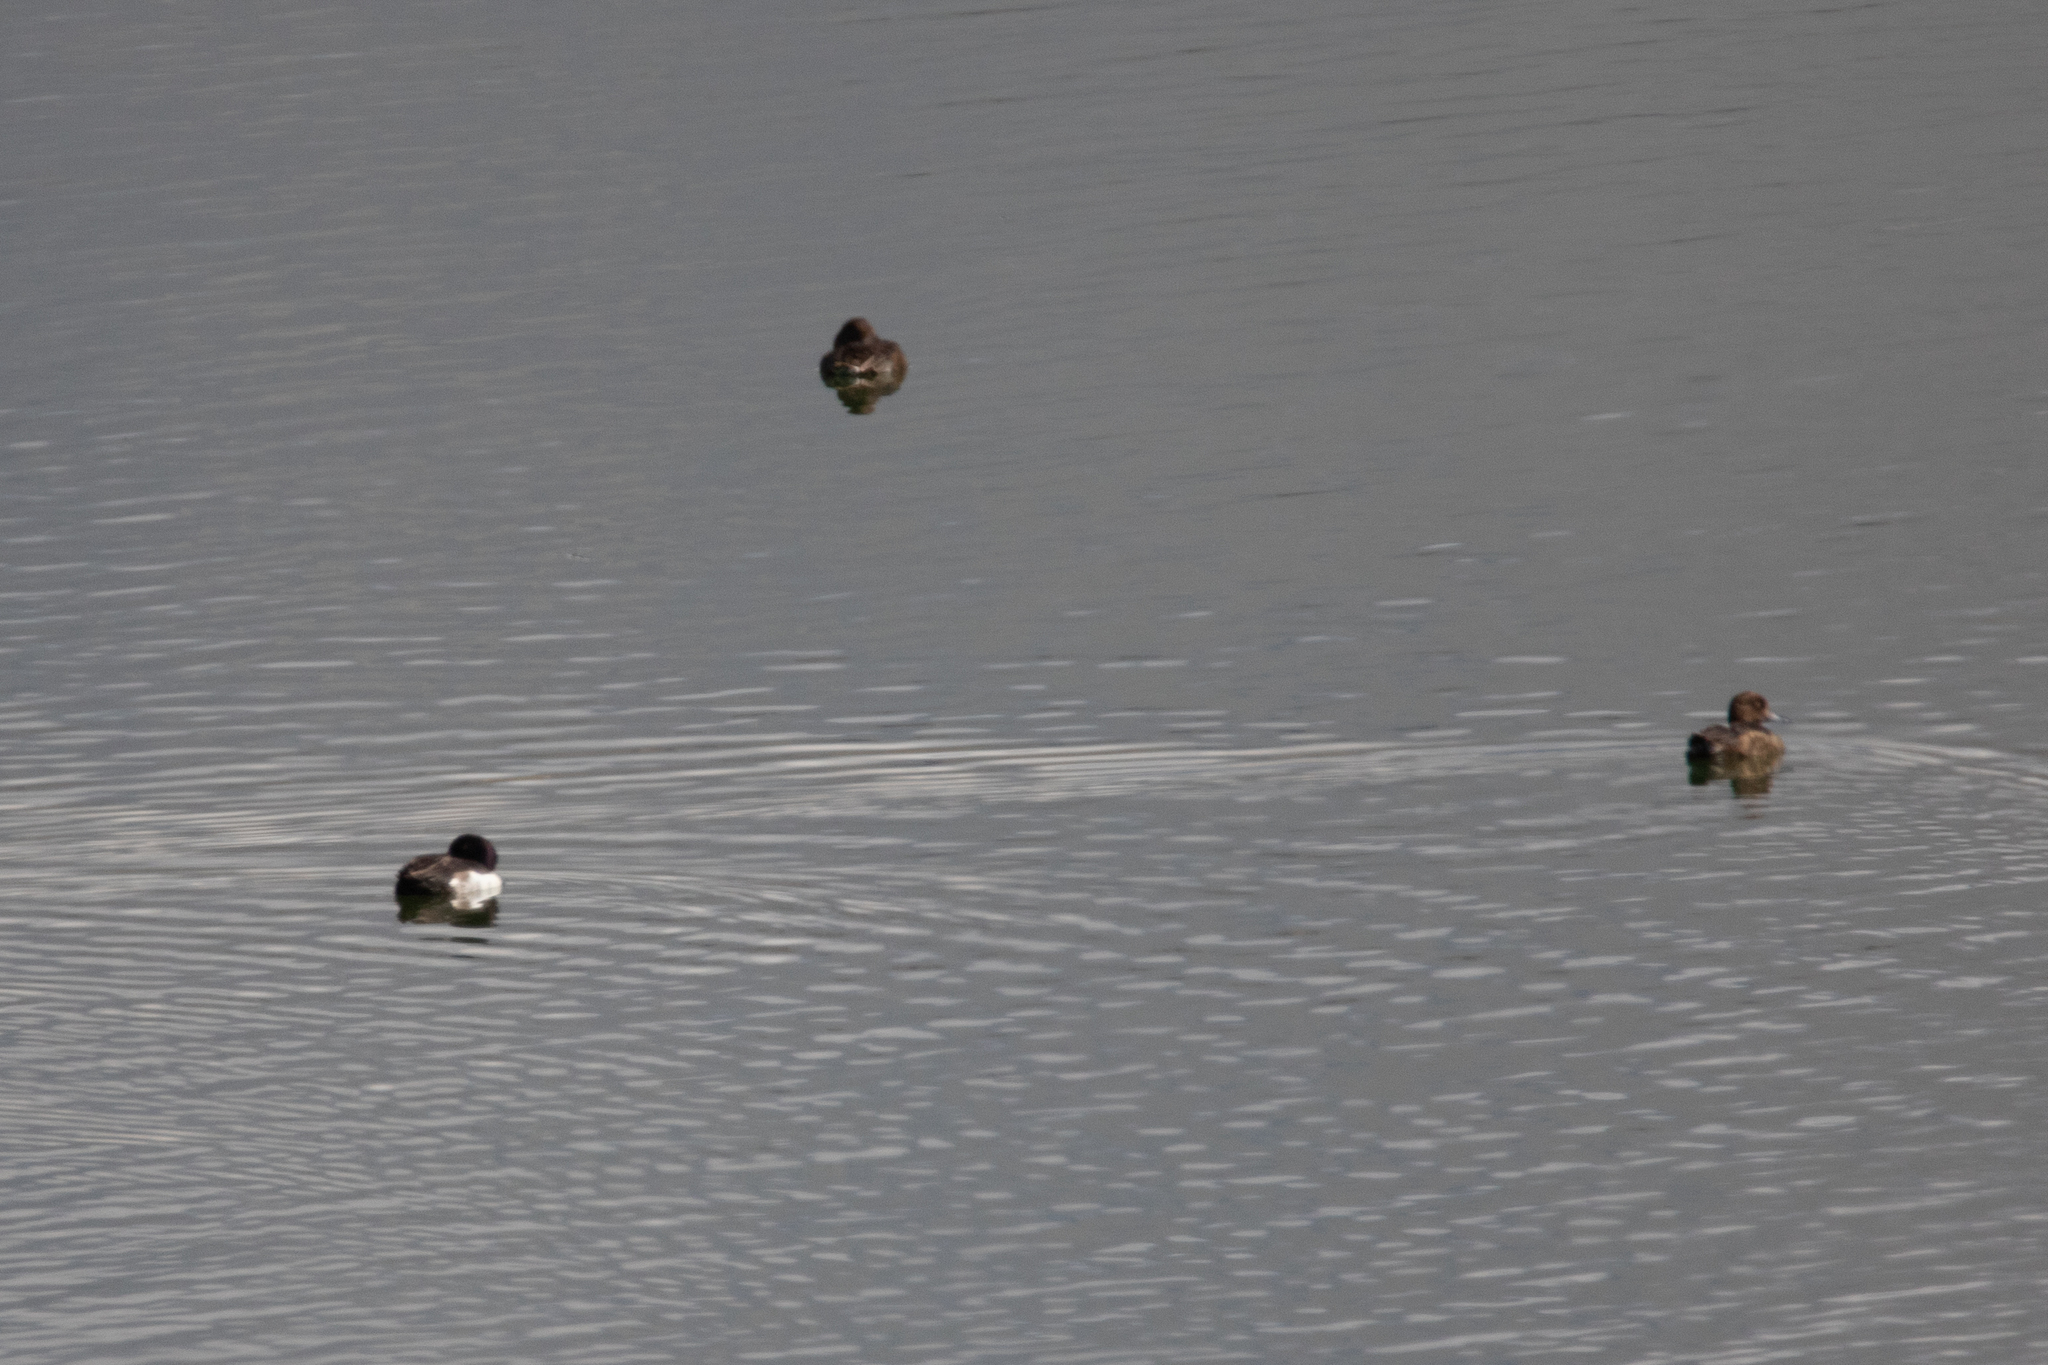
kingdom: Animalia
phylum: Chordata
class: Aves
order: Anseriformes
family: Anatidae
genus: Aythya
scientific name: Aythya fuligula
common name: Tufted duck
